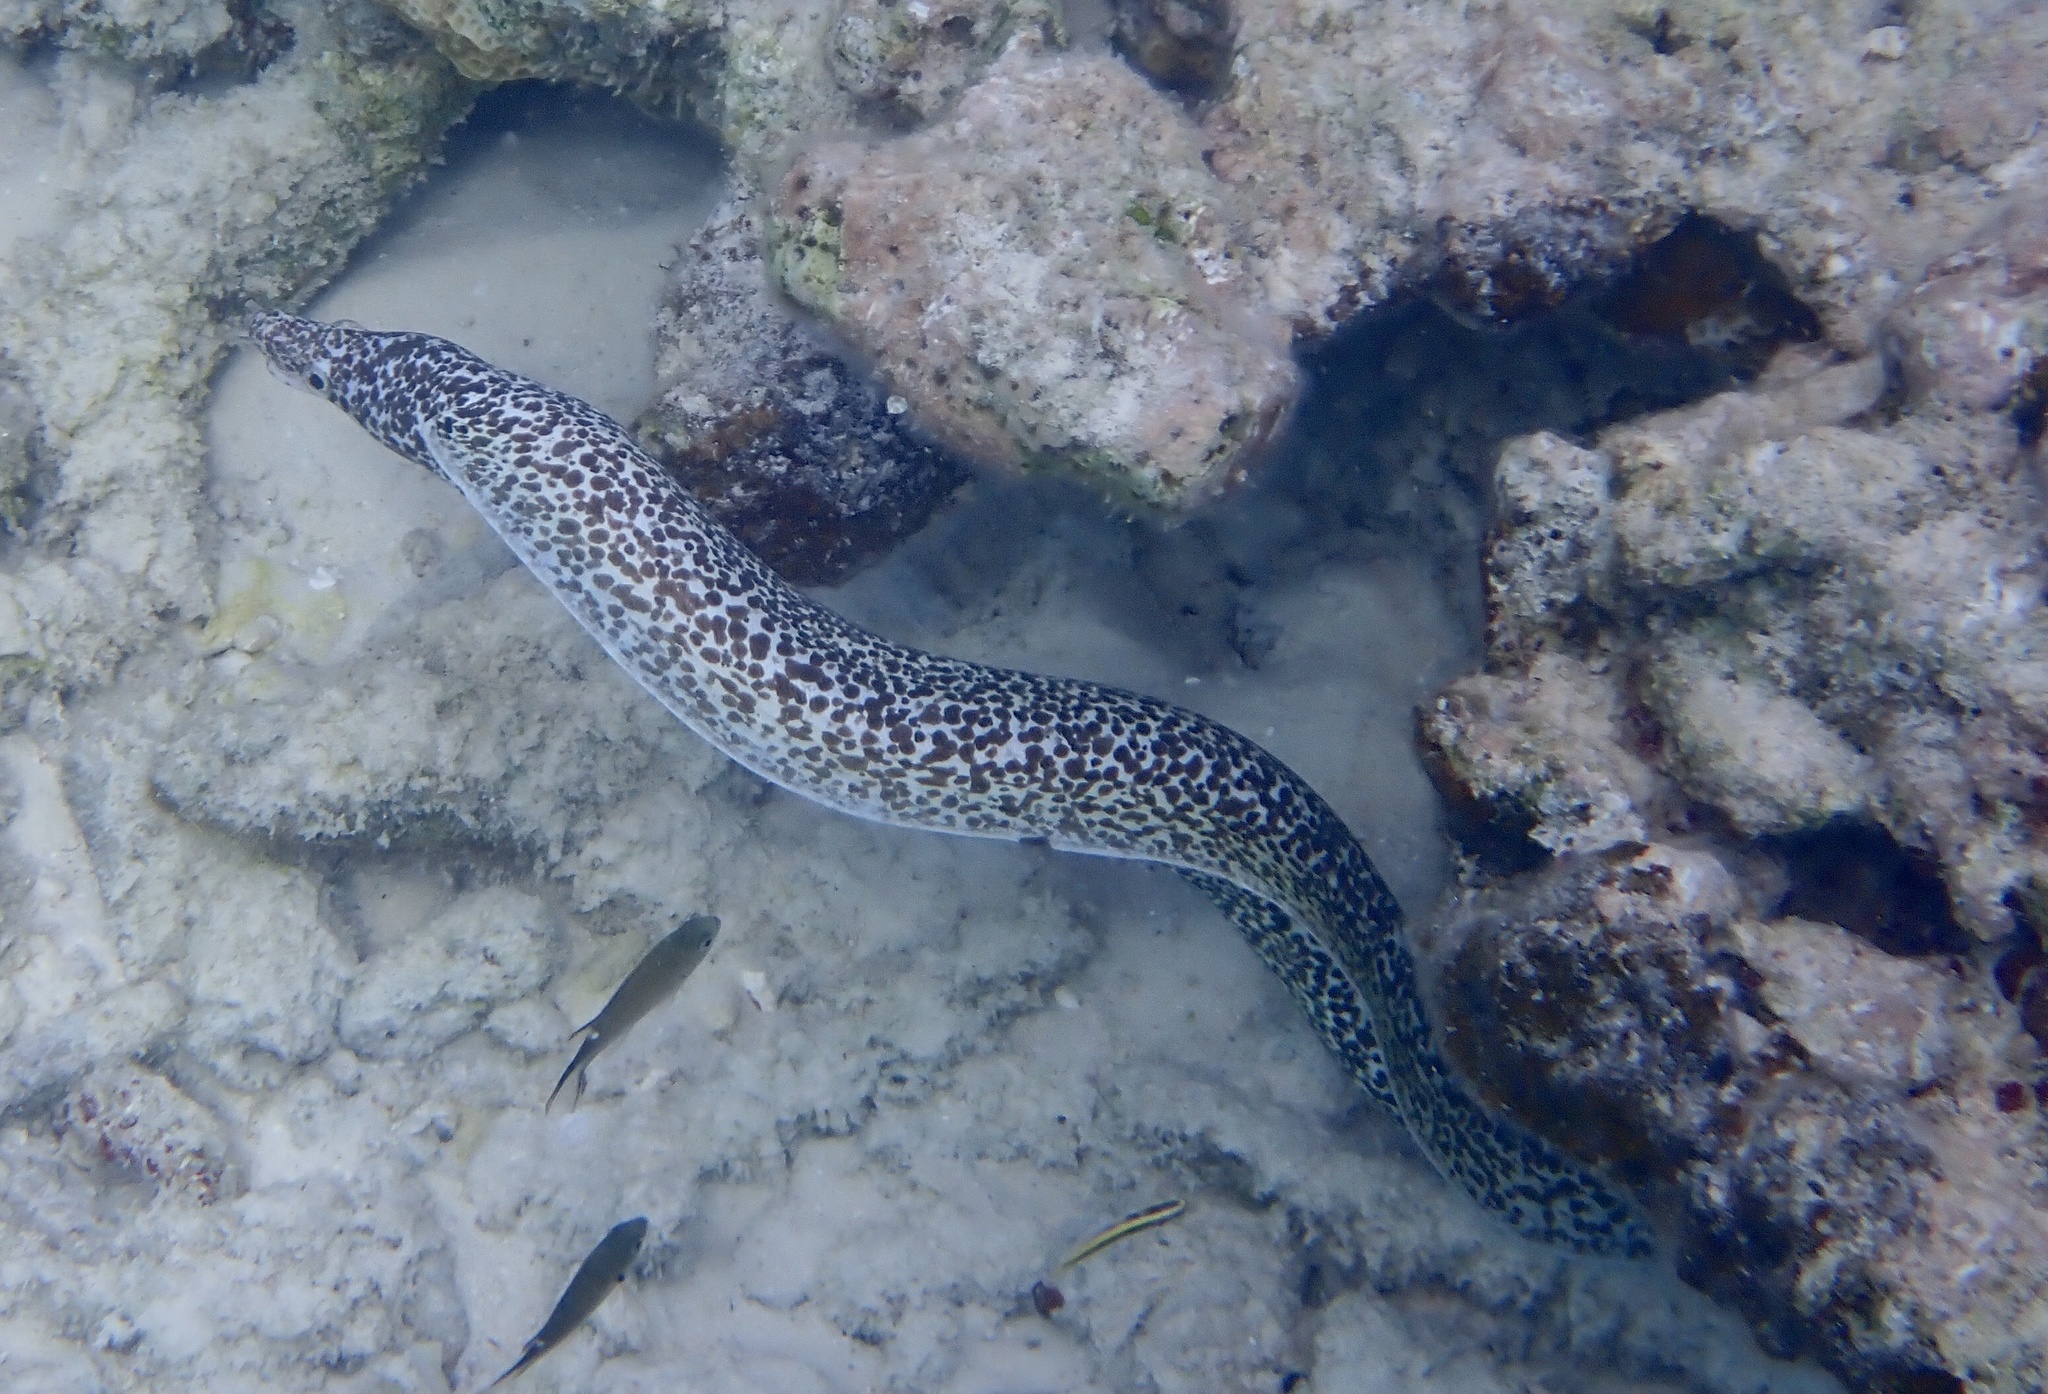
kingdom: Animalia
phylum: Chordata
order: Anguilliformes
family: Muraenidae
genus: Gymnothorax
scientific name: Gymnothorax moringa
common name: Spotted moray
